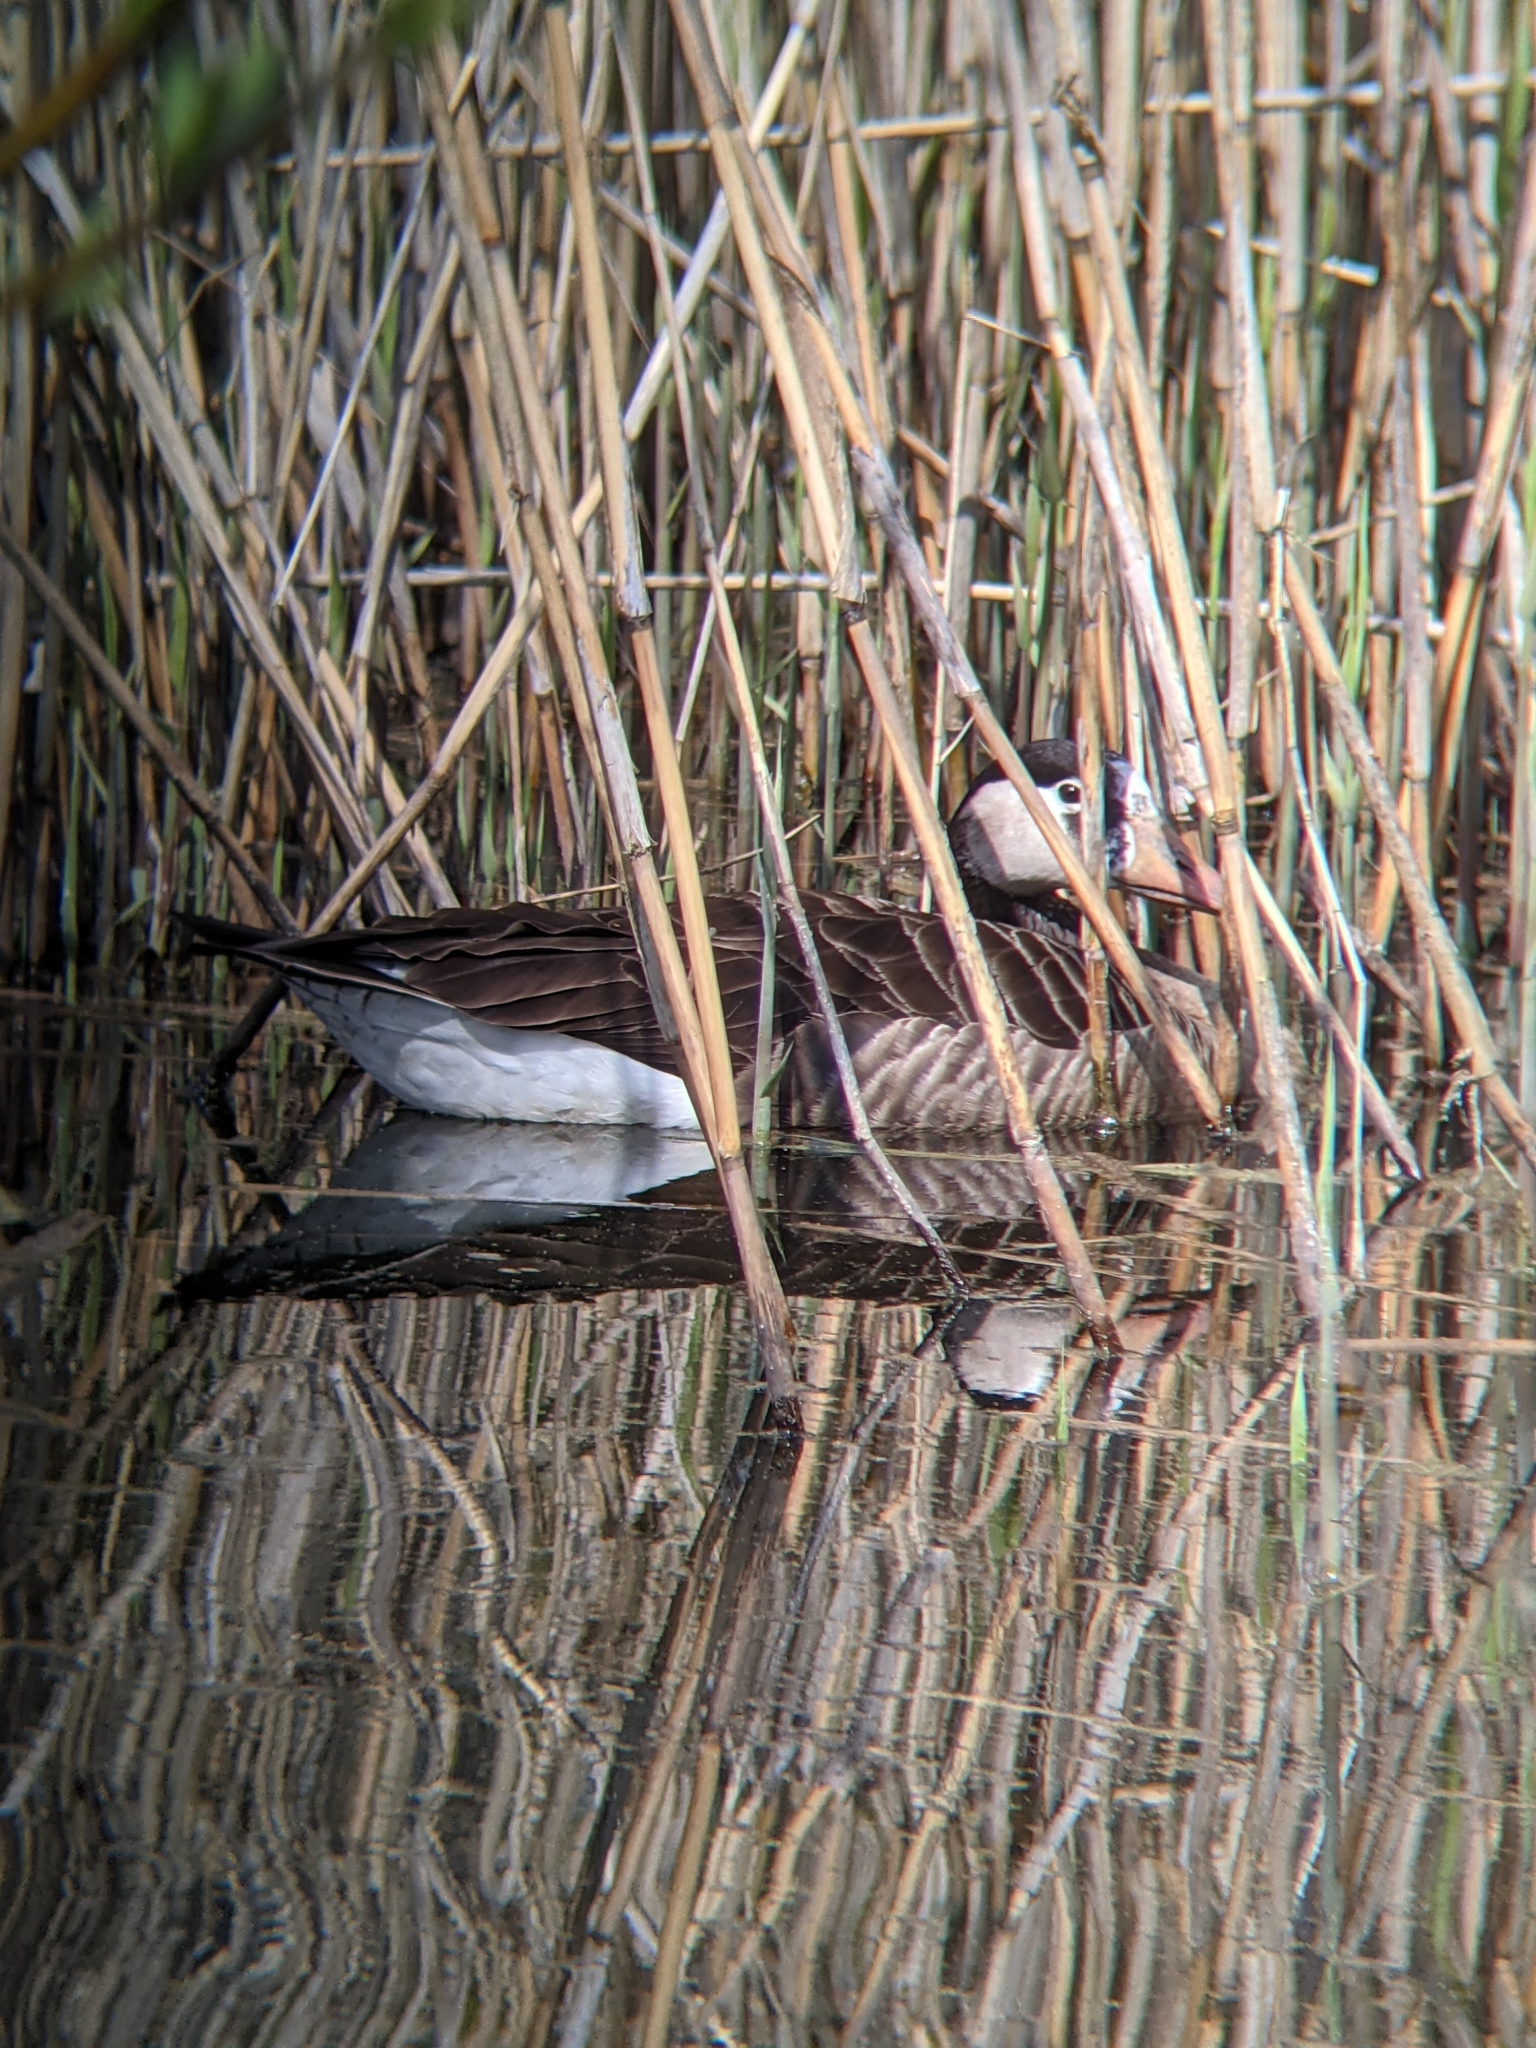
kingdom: Animalia
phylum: Chordata
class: Aves
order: Anseriformes
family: Anatidae
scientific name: Anatidae
